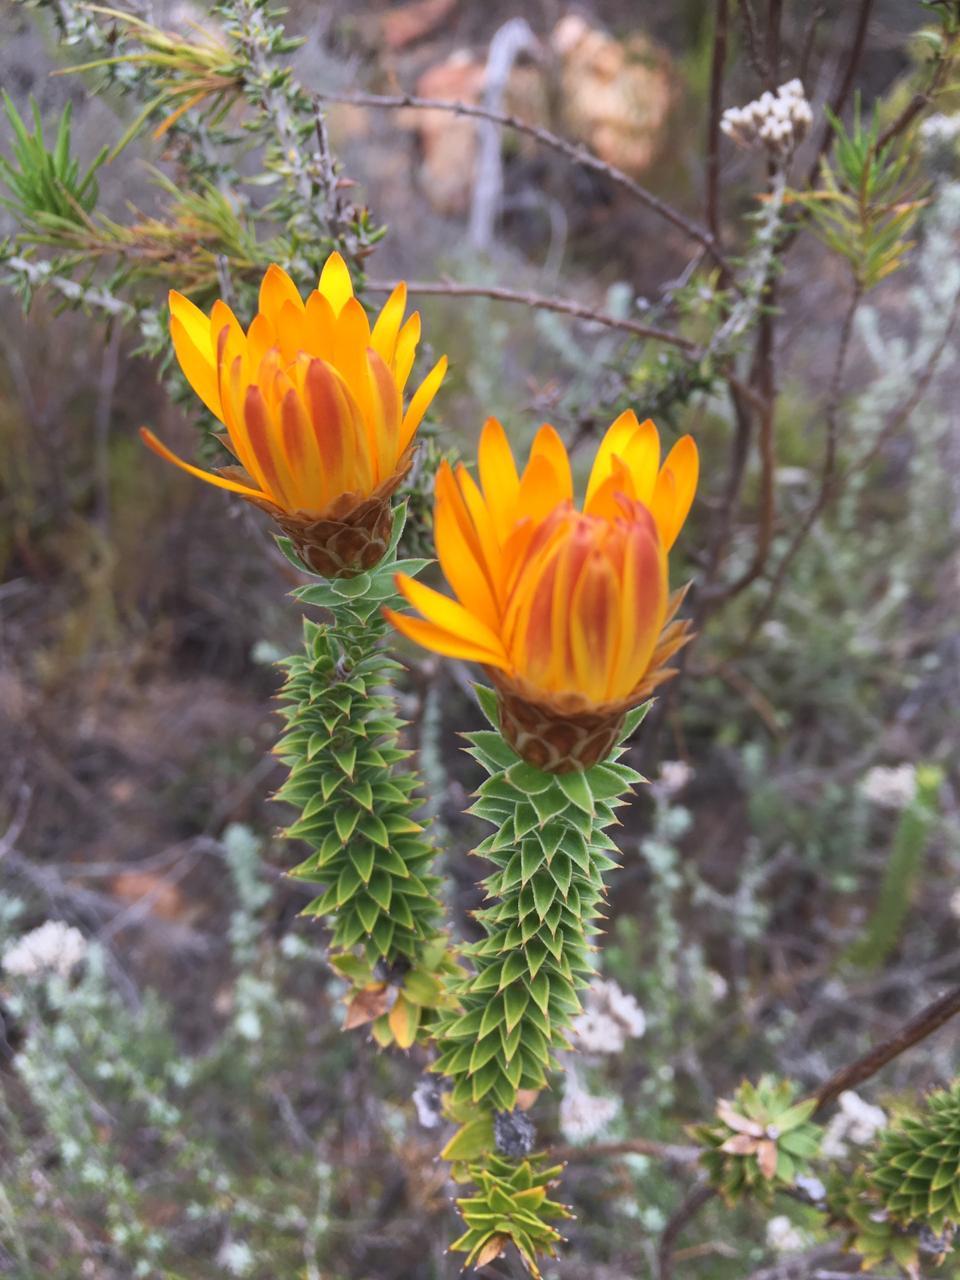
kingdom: Plantae
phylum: Tracheophyta
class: Magnoliopsida
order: Asterales
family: Asteraceae
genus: Oedera
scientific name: Oedera speciosa
